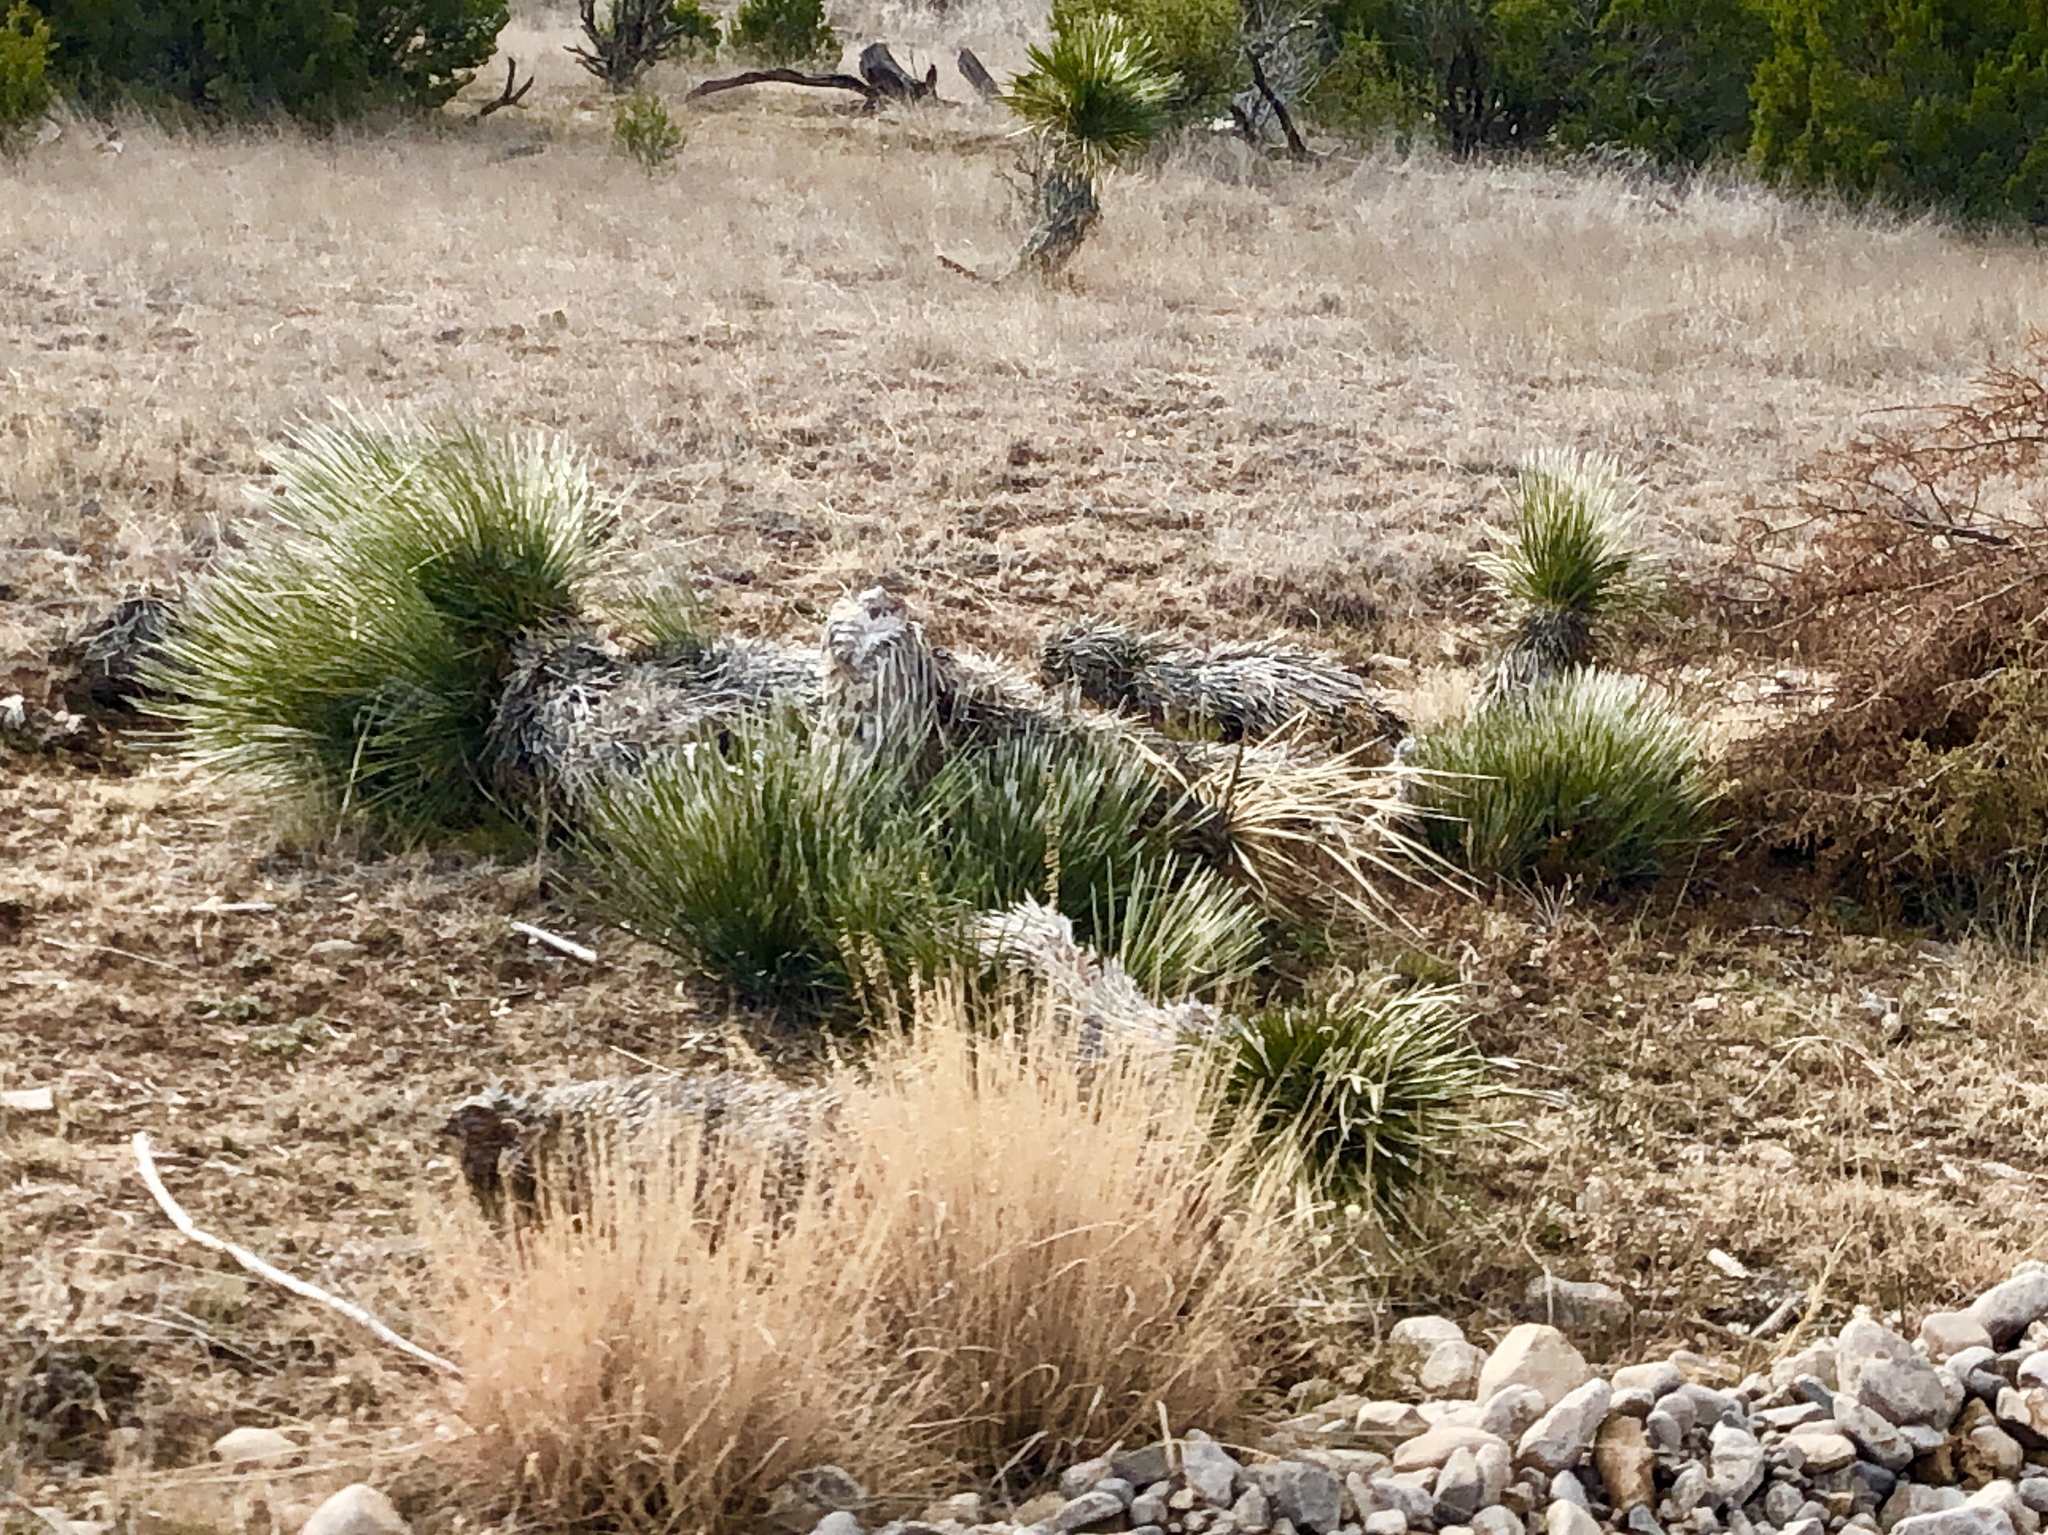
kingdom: Plantae
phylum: Tracheophyta
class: Liliopsida
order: Asparagales
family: Asparagaceae
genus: Yucca
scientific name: Yucca elata
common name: Palmella
